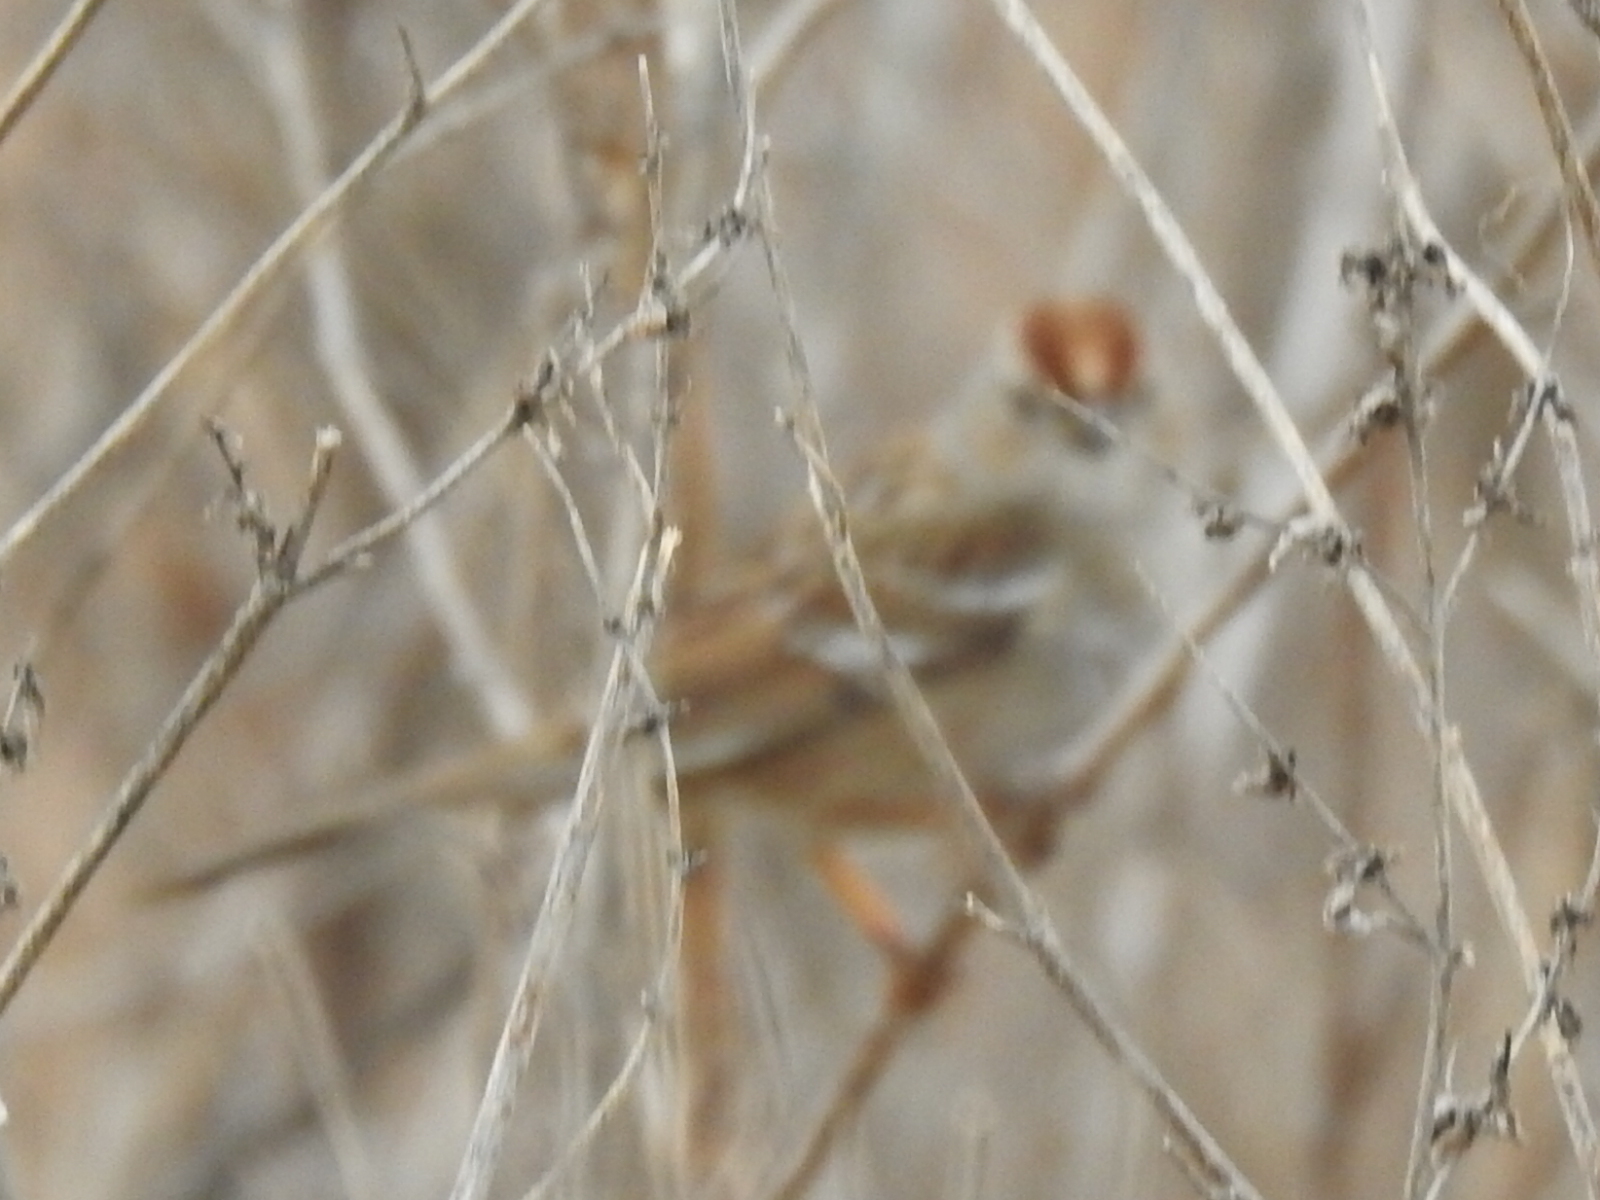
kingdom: Animalia
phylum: Chordata
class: Aves
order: Passeriformes
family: Passerellidae
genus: Zonotrichia
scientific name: Zonotrichia leucophrys
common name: White-crowned sparrow
